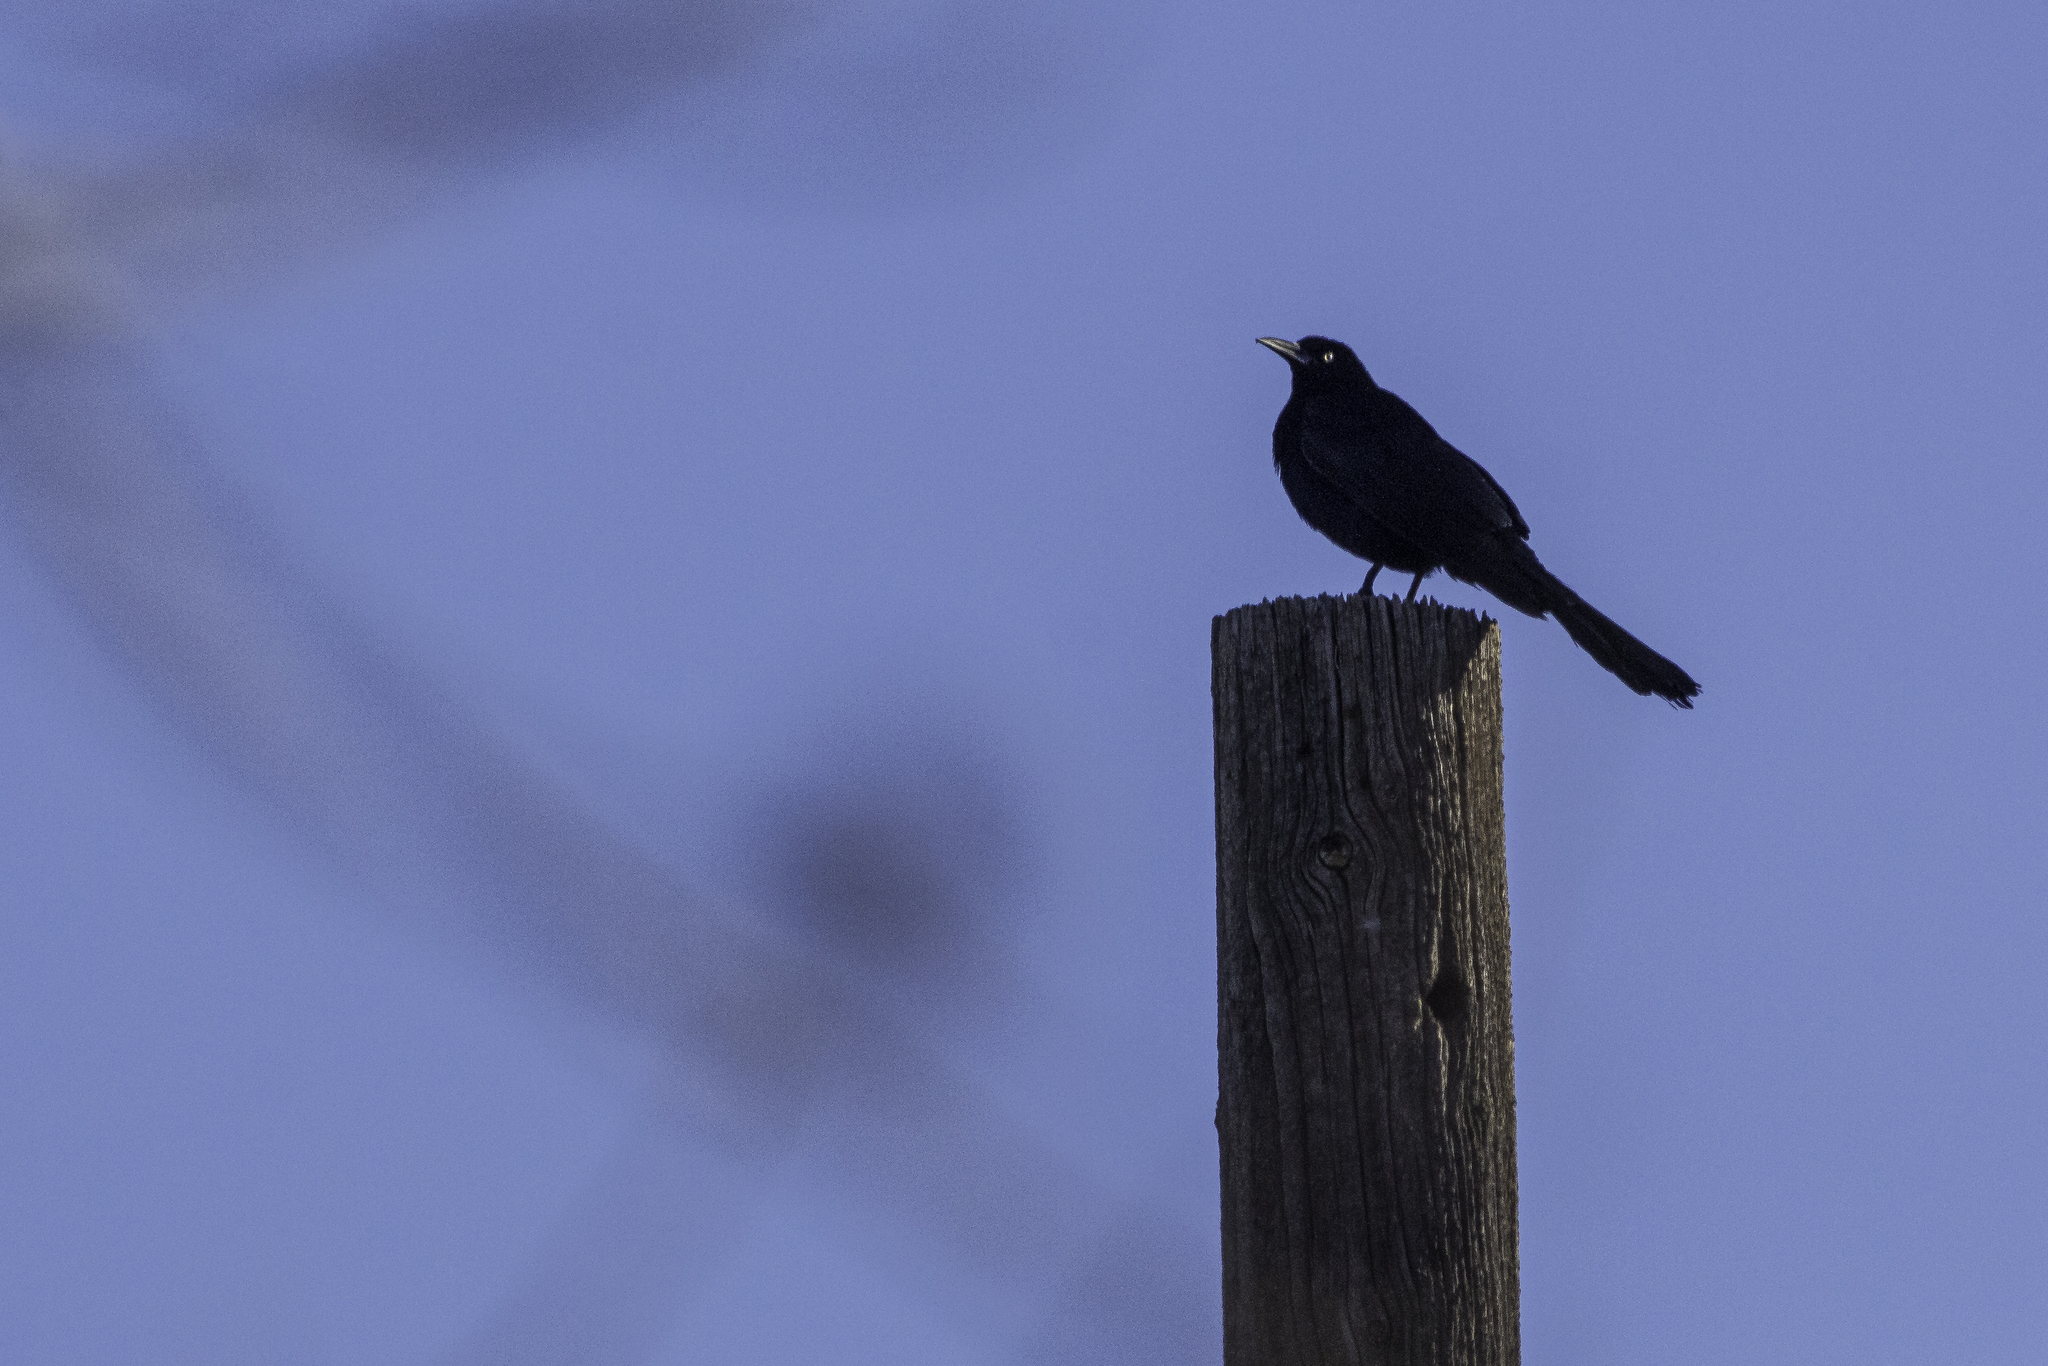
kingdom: Animalia
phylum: Chordata
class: Aves
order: Passeriformes
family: Icteridae
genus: Quiscalus
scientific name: Quiscalus mexicanus
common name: Great-tailed grackle
